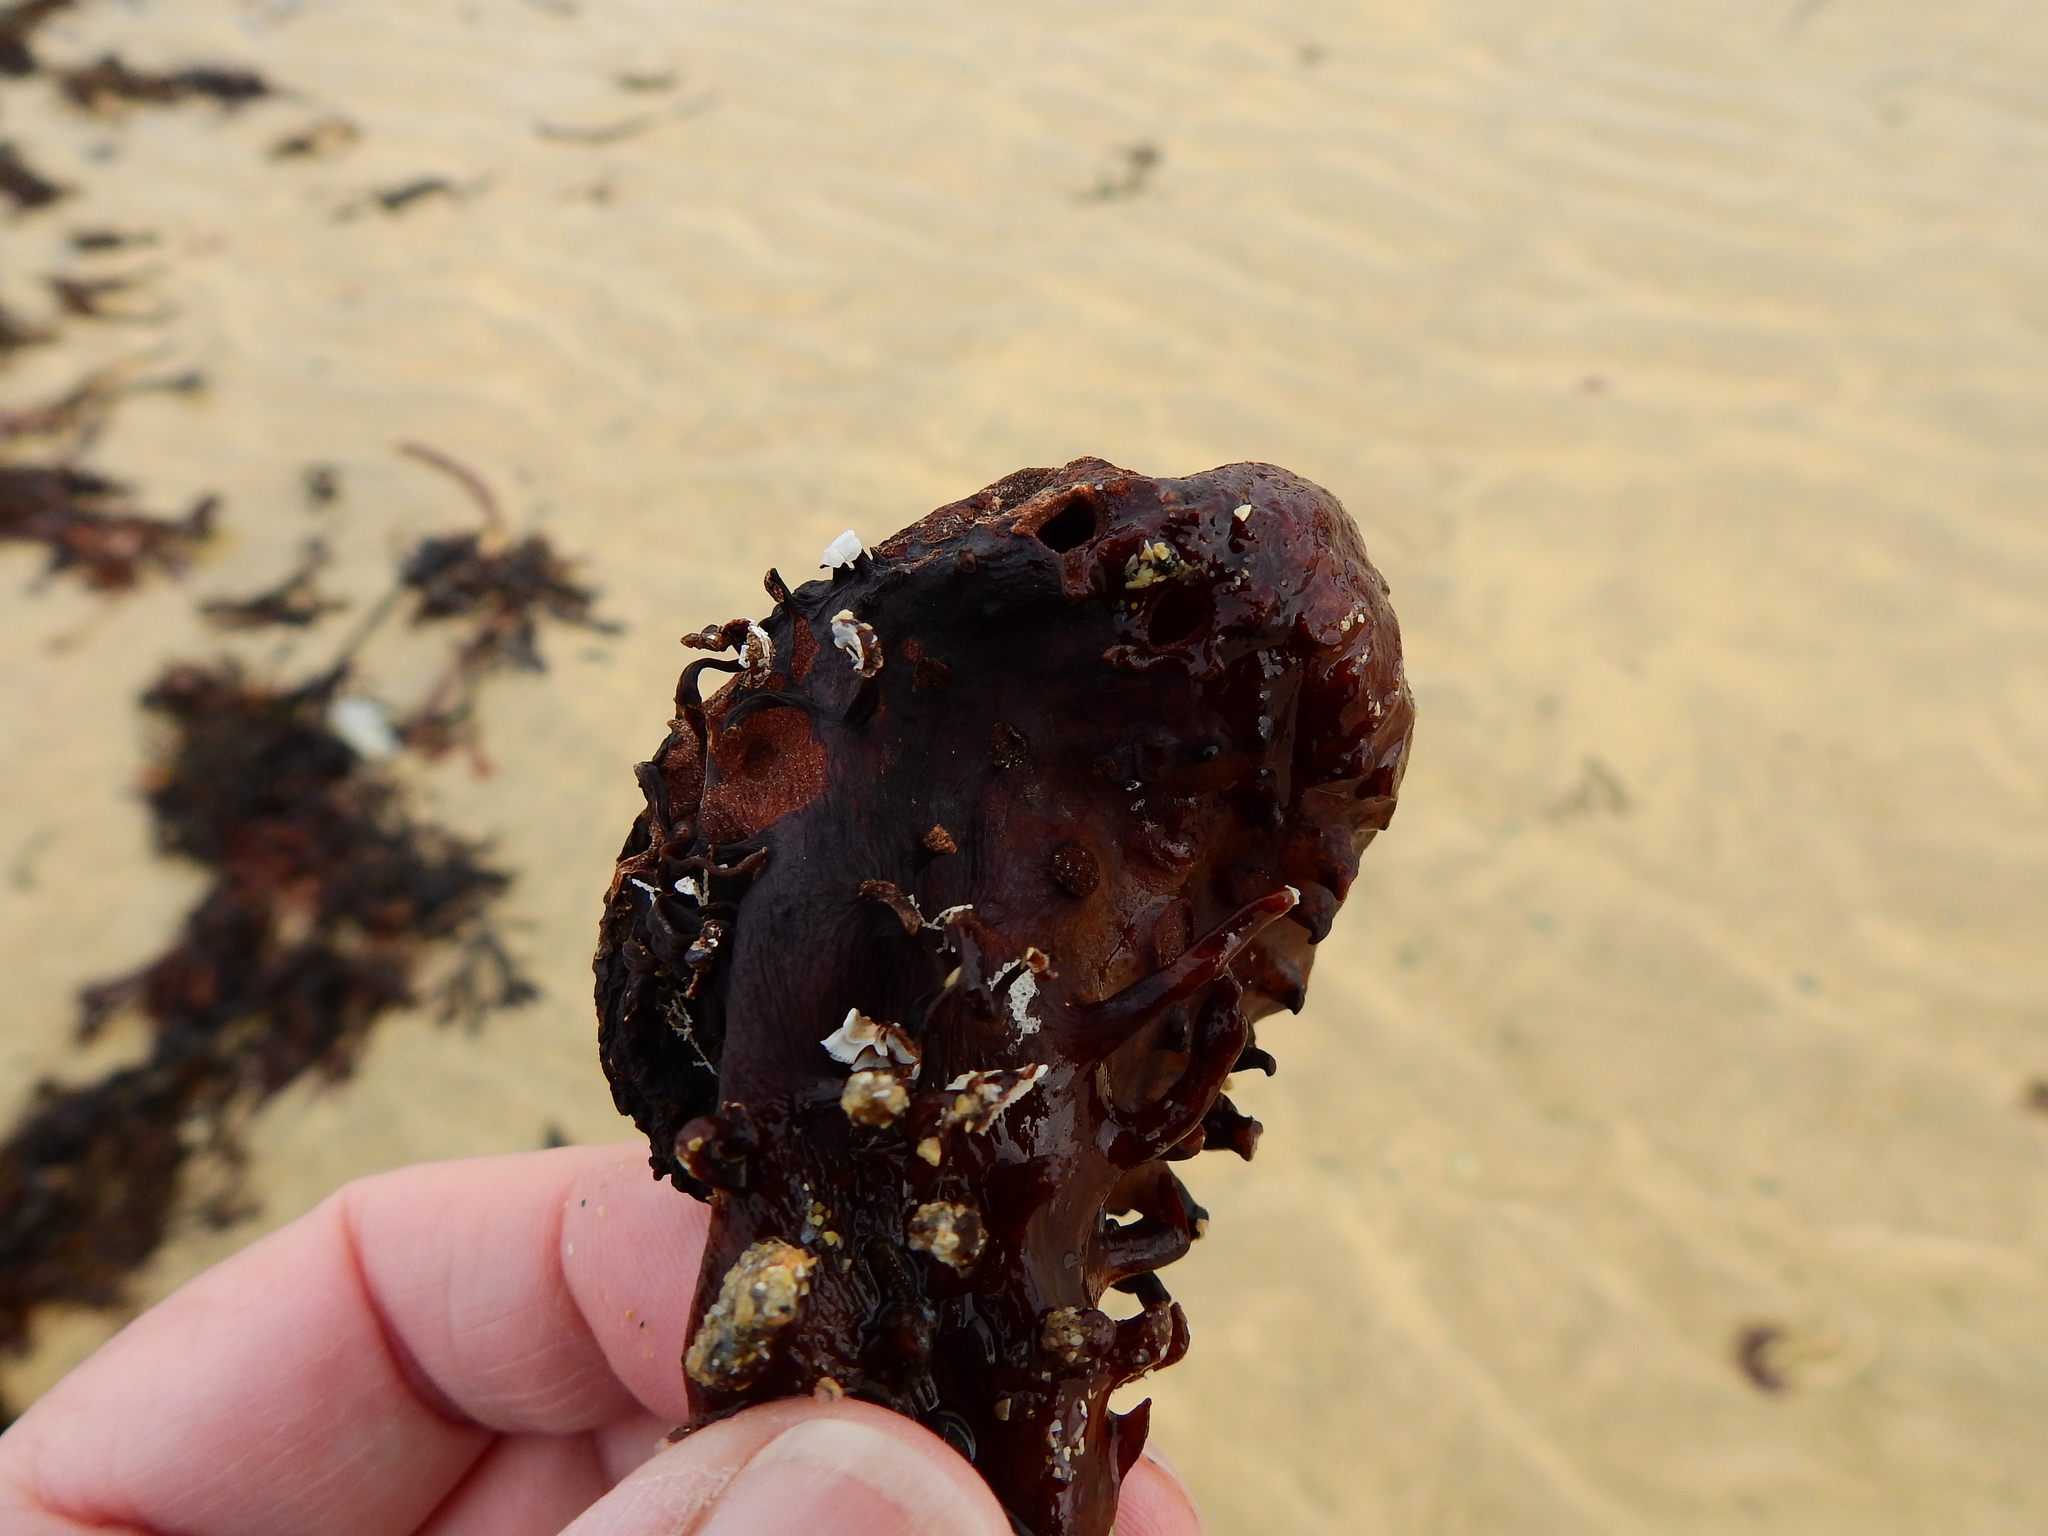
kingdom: Chromista
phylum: Ochrophyta
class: Phaeophyceae
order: Tilopteridales
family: Phyllariaceae
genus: Saccorhiza
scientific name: Saccorhiza polyschides
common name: Furbelows
